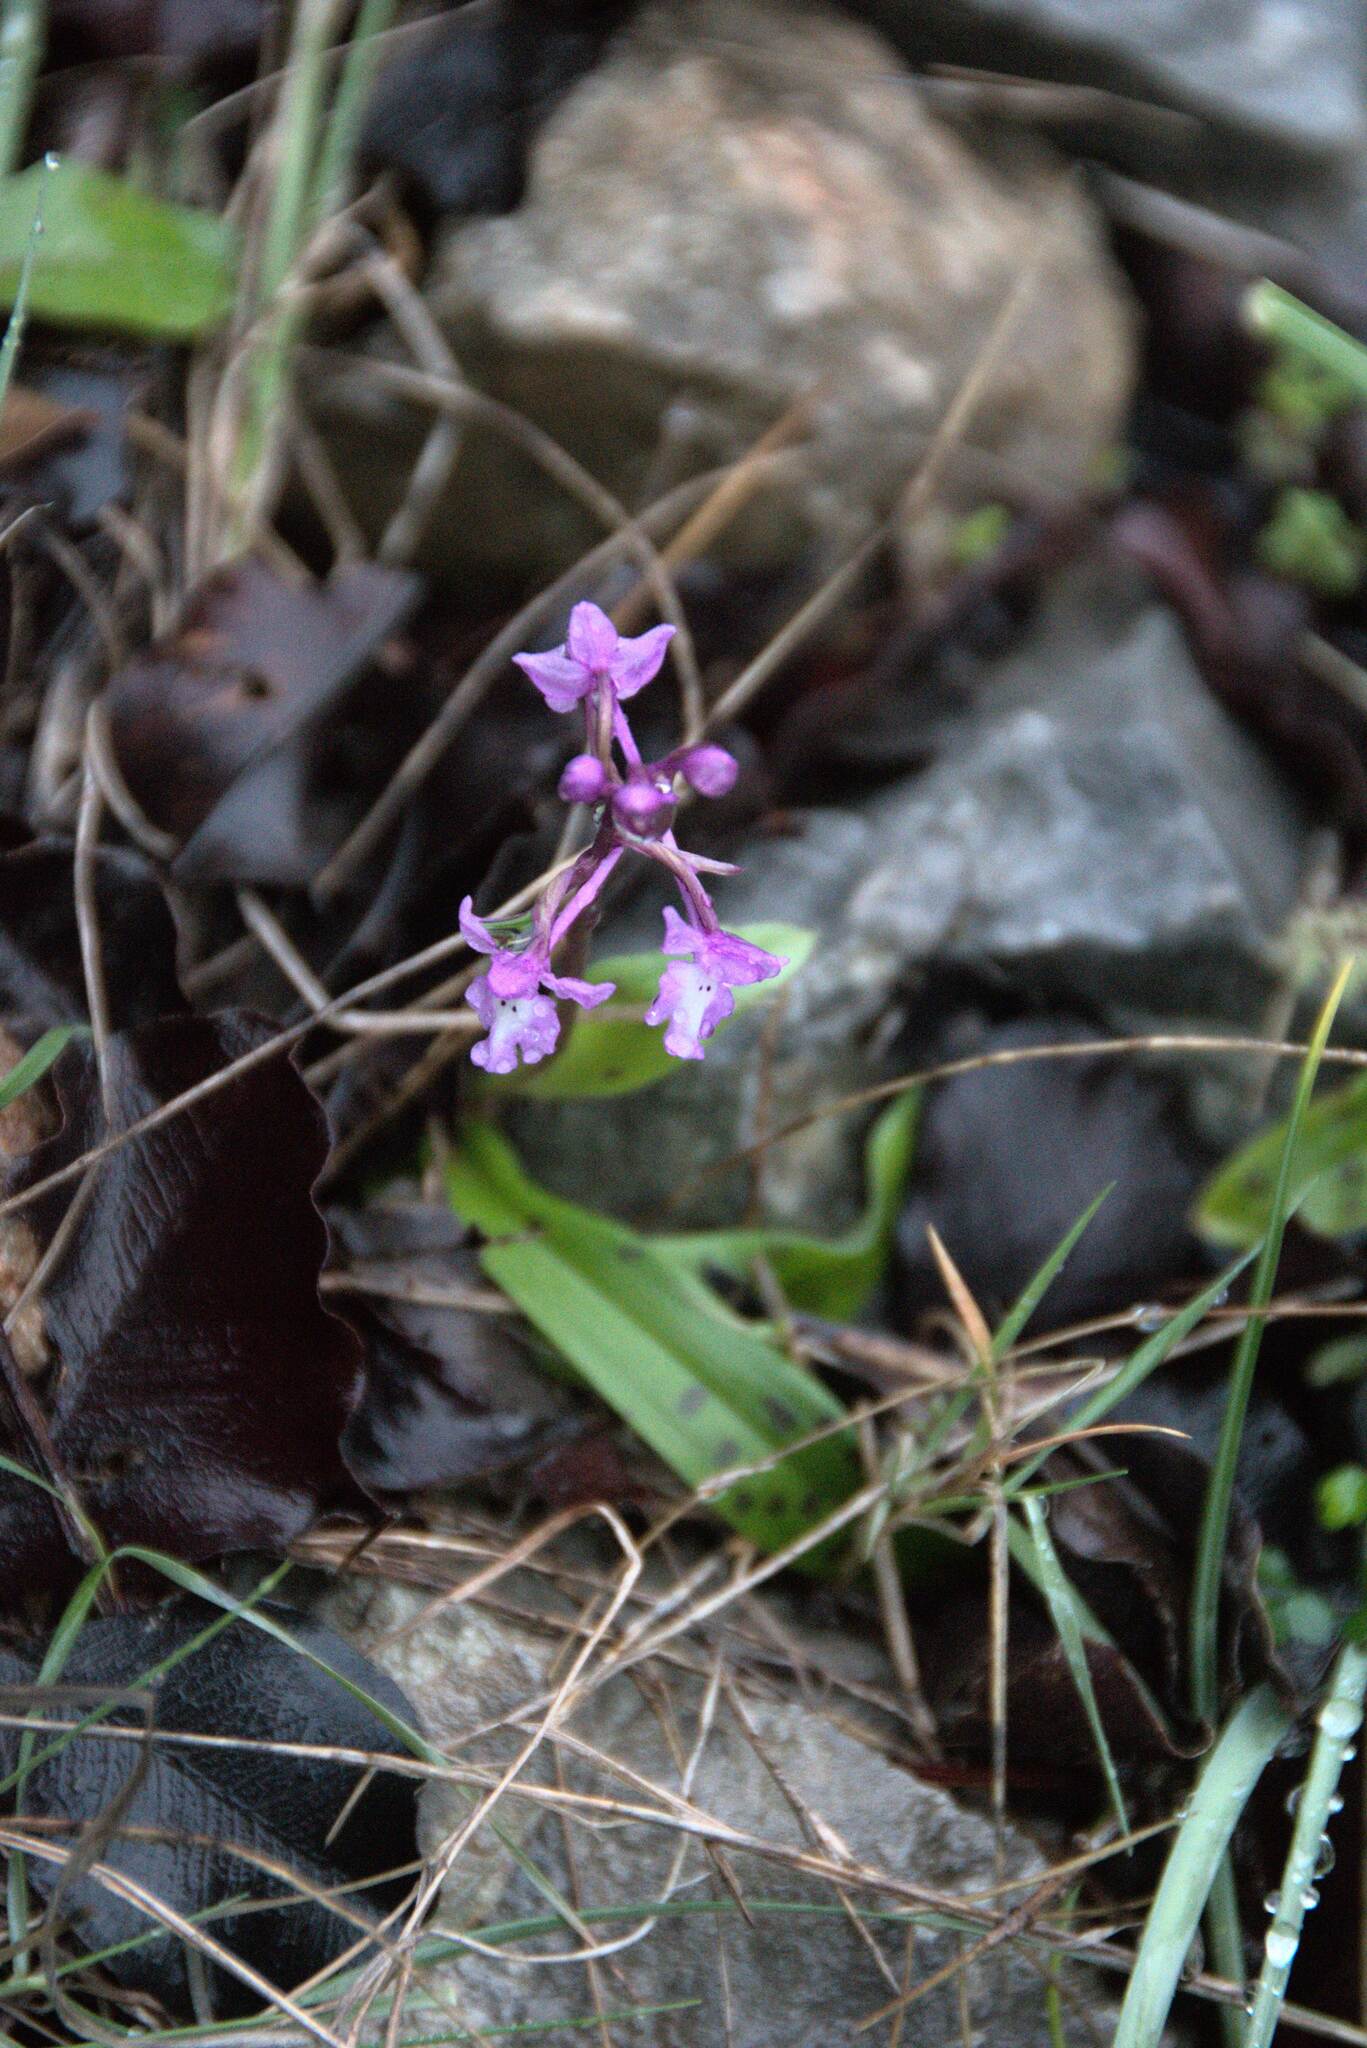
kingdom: Plantae
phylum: Tracheophyta
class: Liliopsida
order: Asparagales
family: Orchidaceae
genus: Orchis
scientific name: Orchis quadripunctata
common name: Four-spotted orchid
